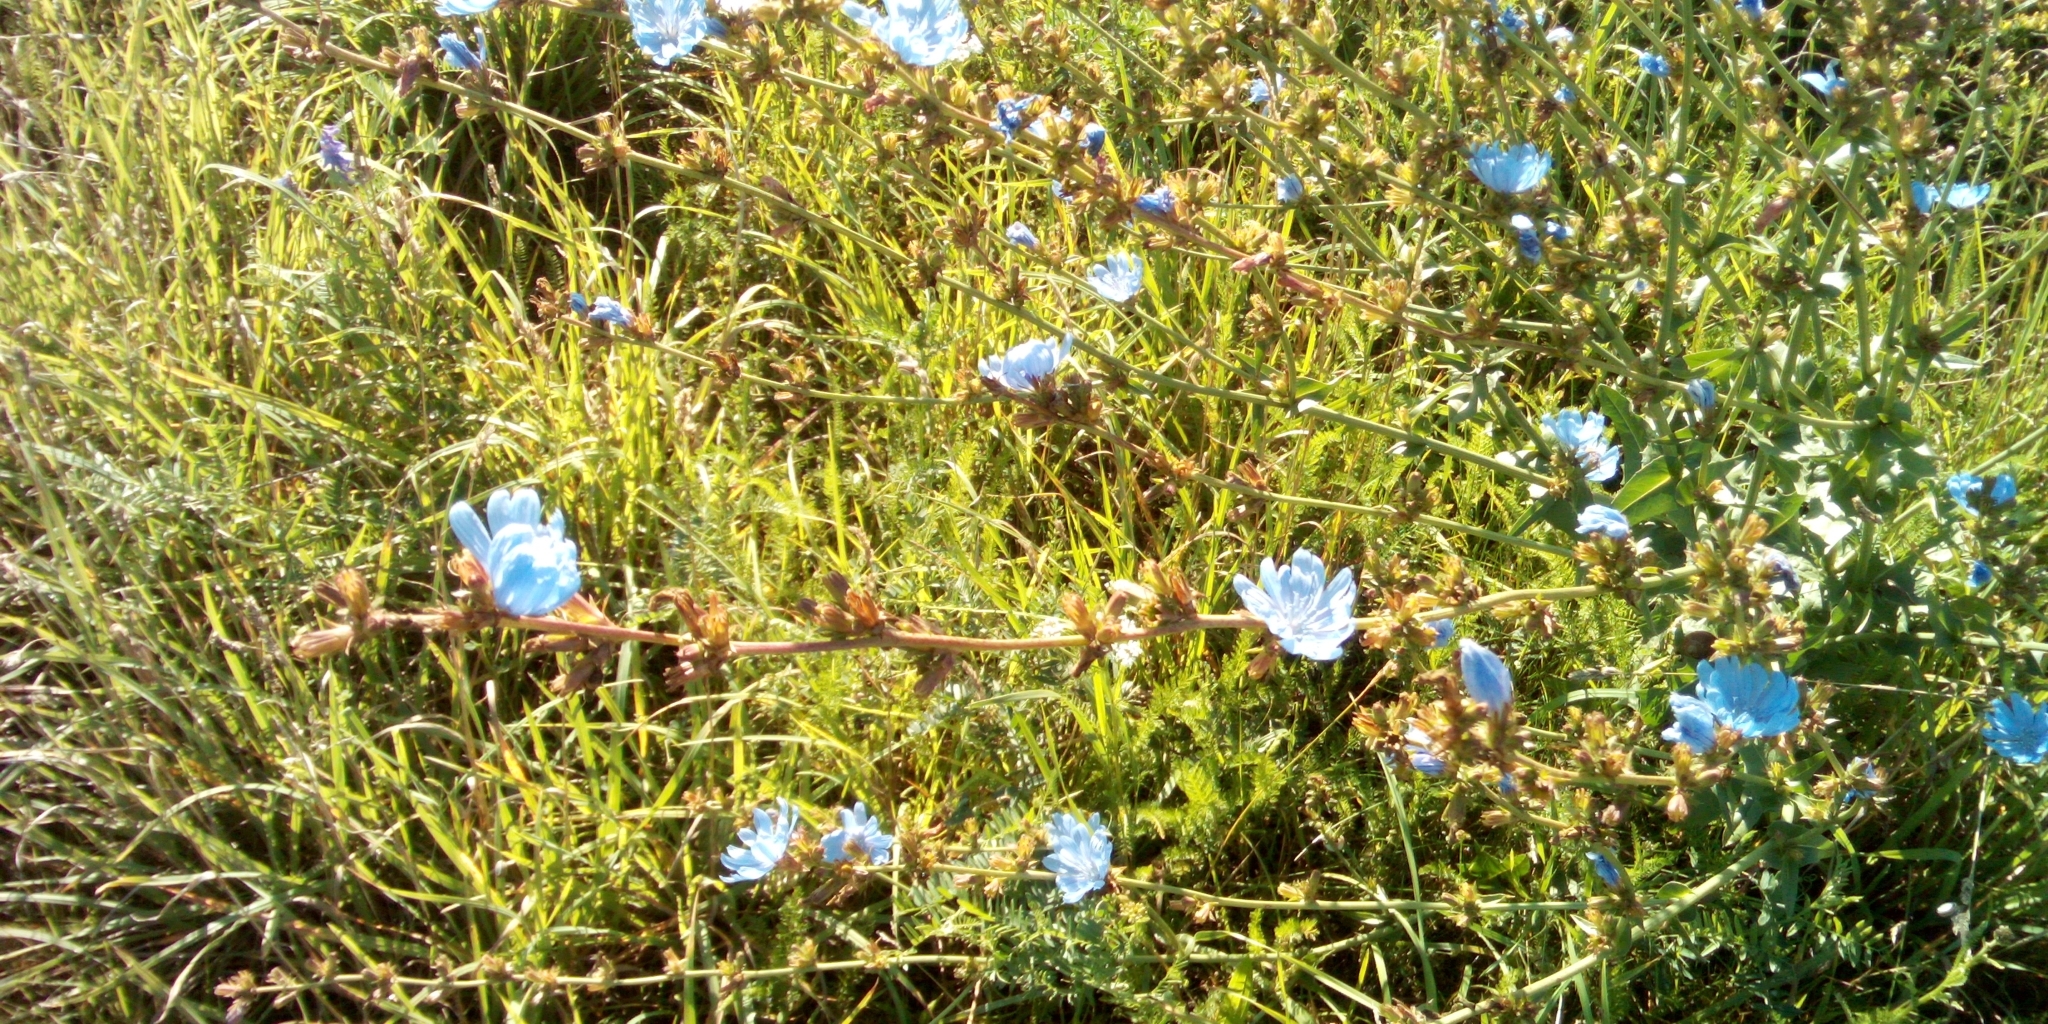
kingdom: Plantae
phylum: Tracheophyta
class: Magnoliopsida
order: Asterales
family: Asteraceae
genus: Cichorium
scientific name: Cichorium intybus
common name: Chicory
